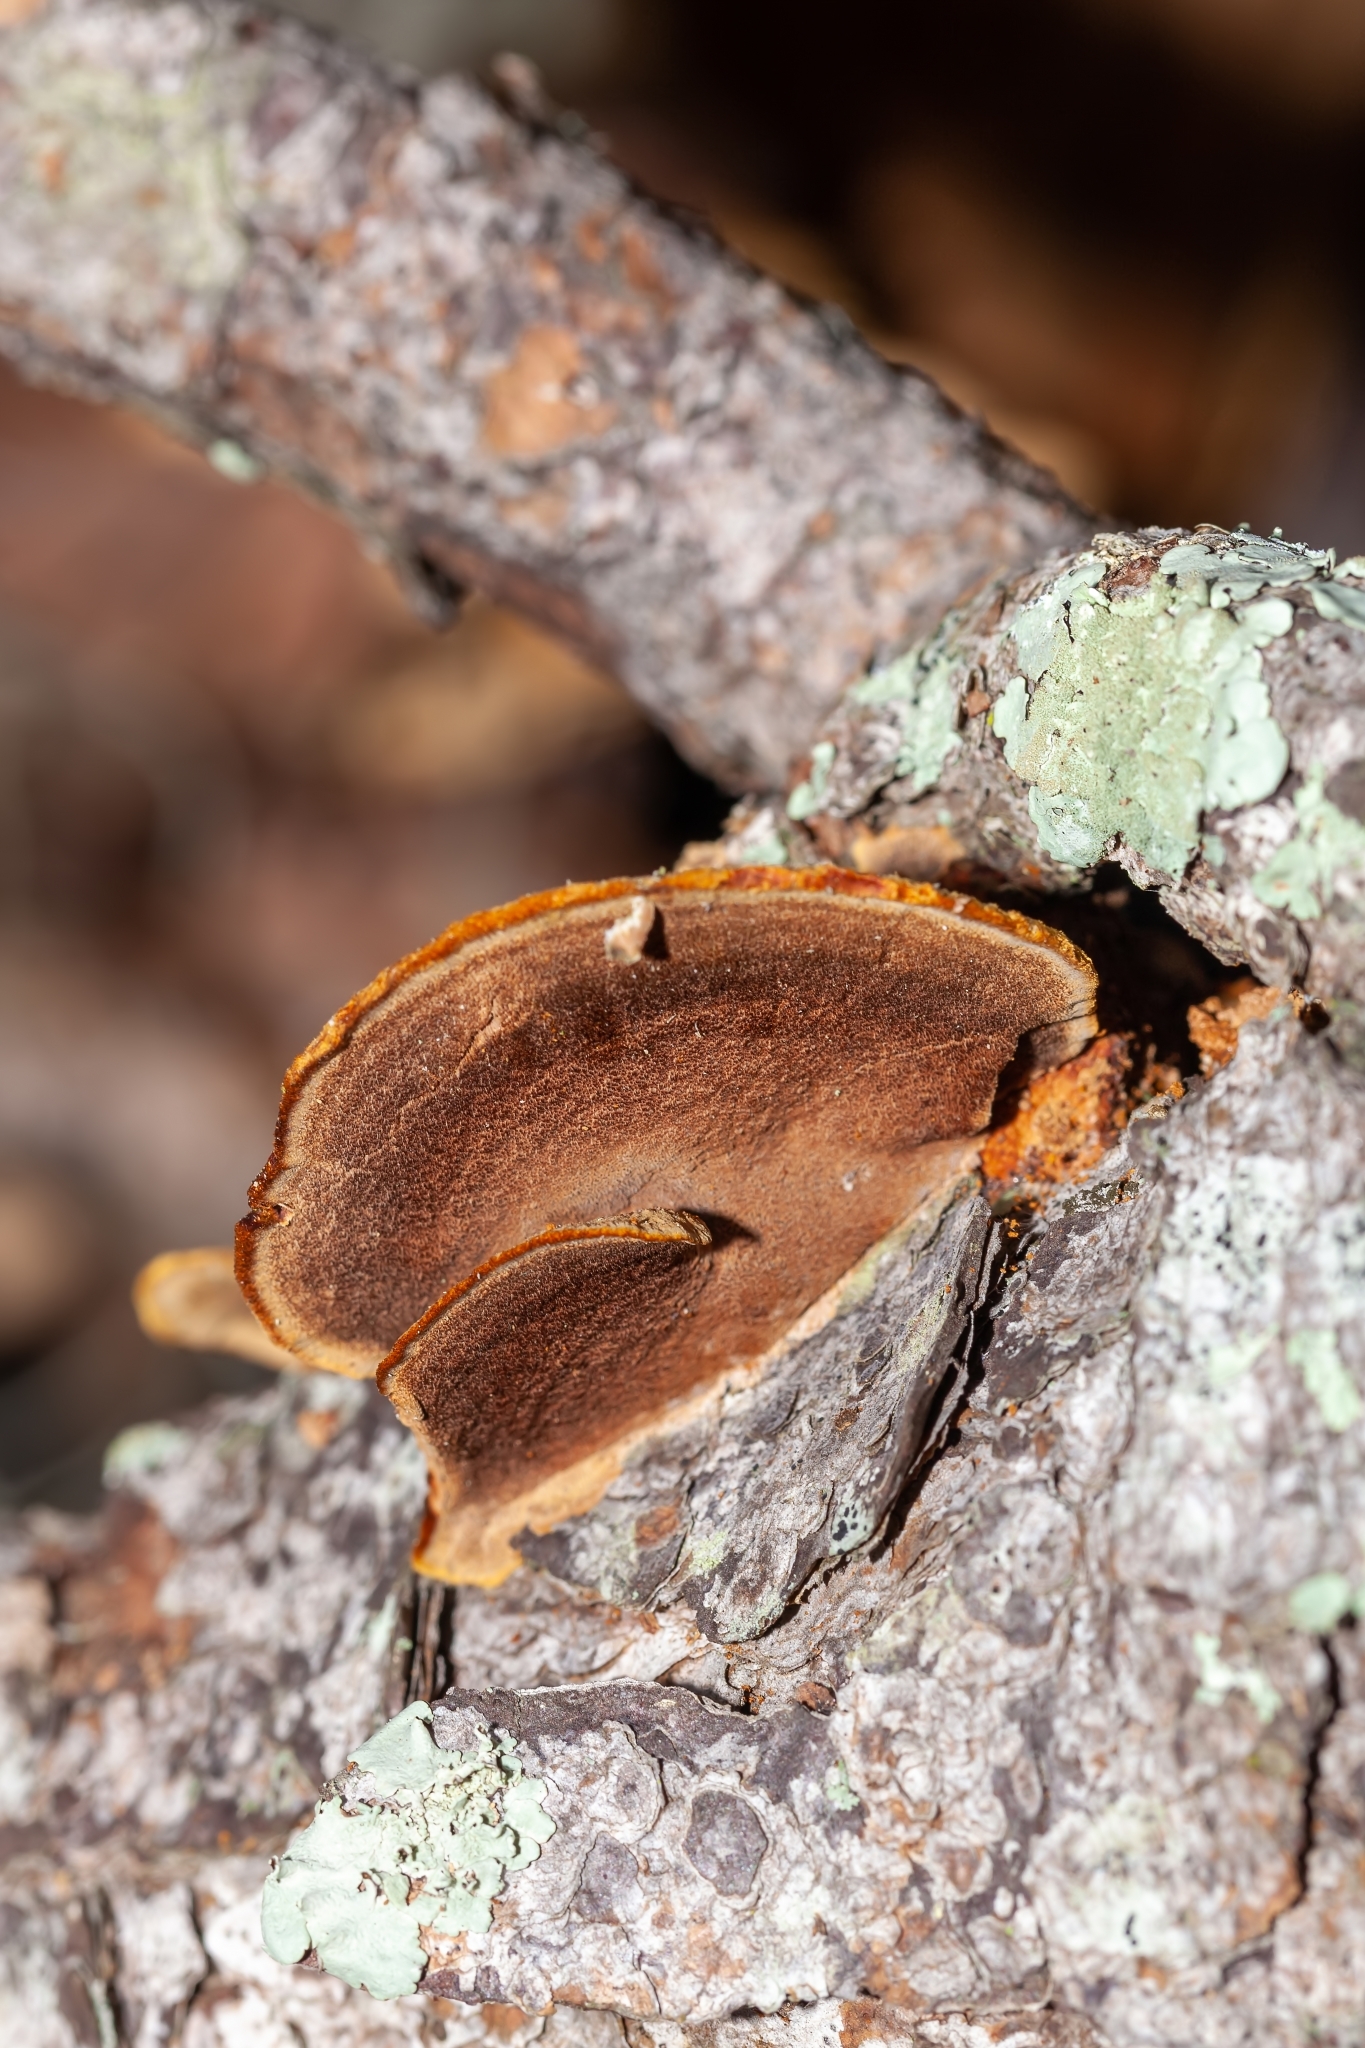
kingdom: Fungi
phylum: Basidiomycota
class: Agaricomycetes
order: Hymenochaetales
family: Hymenochaetaceae
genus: Phellinus
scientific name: Phellinus gilvus
